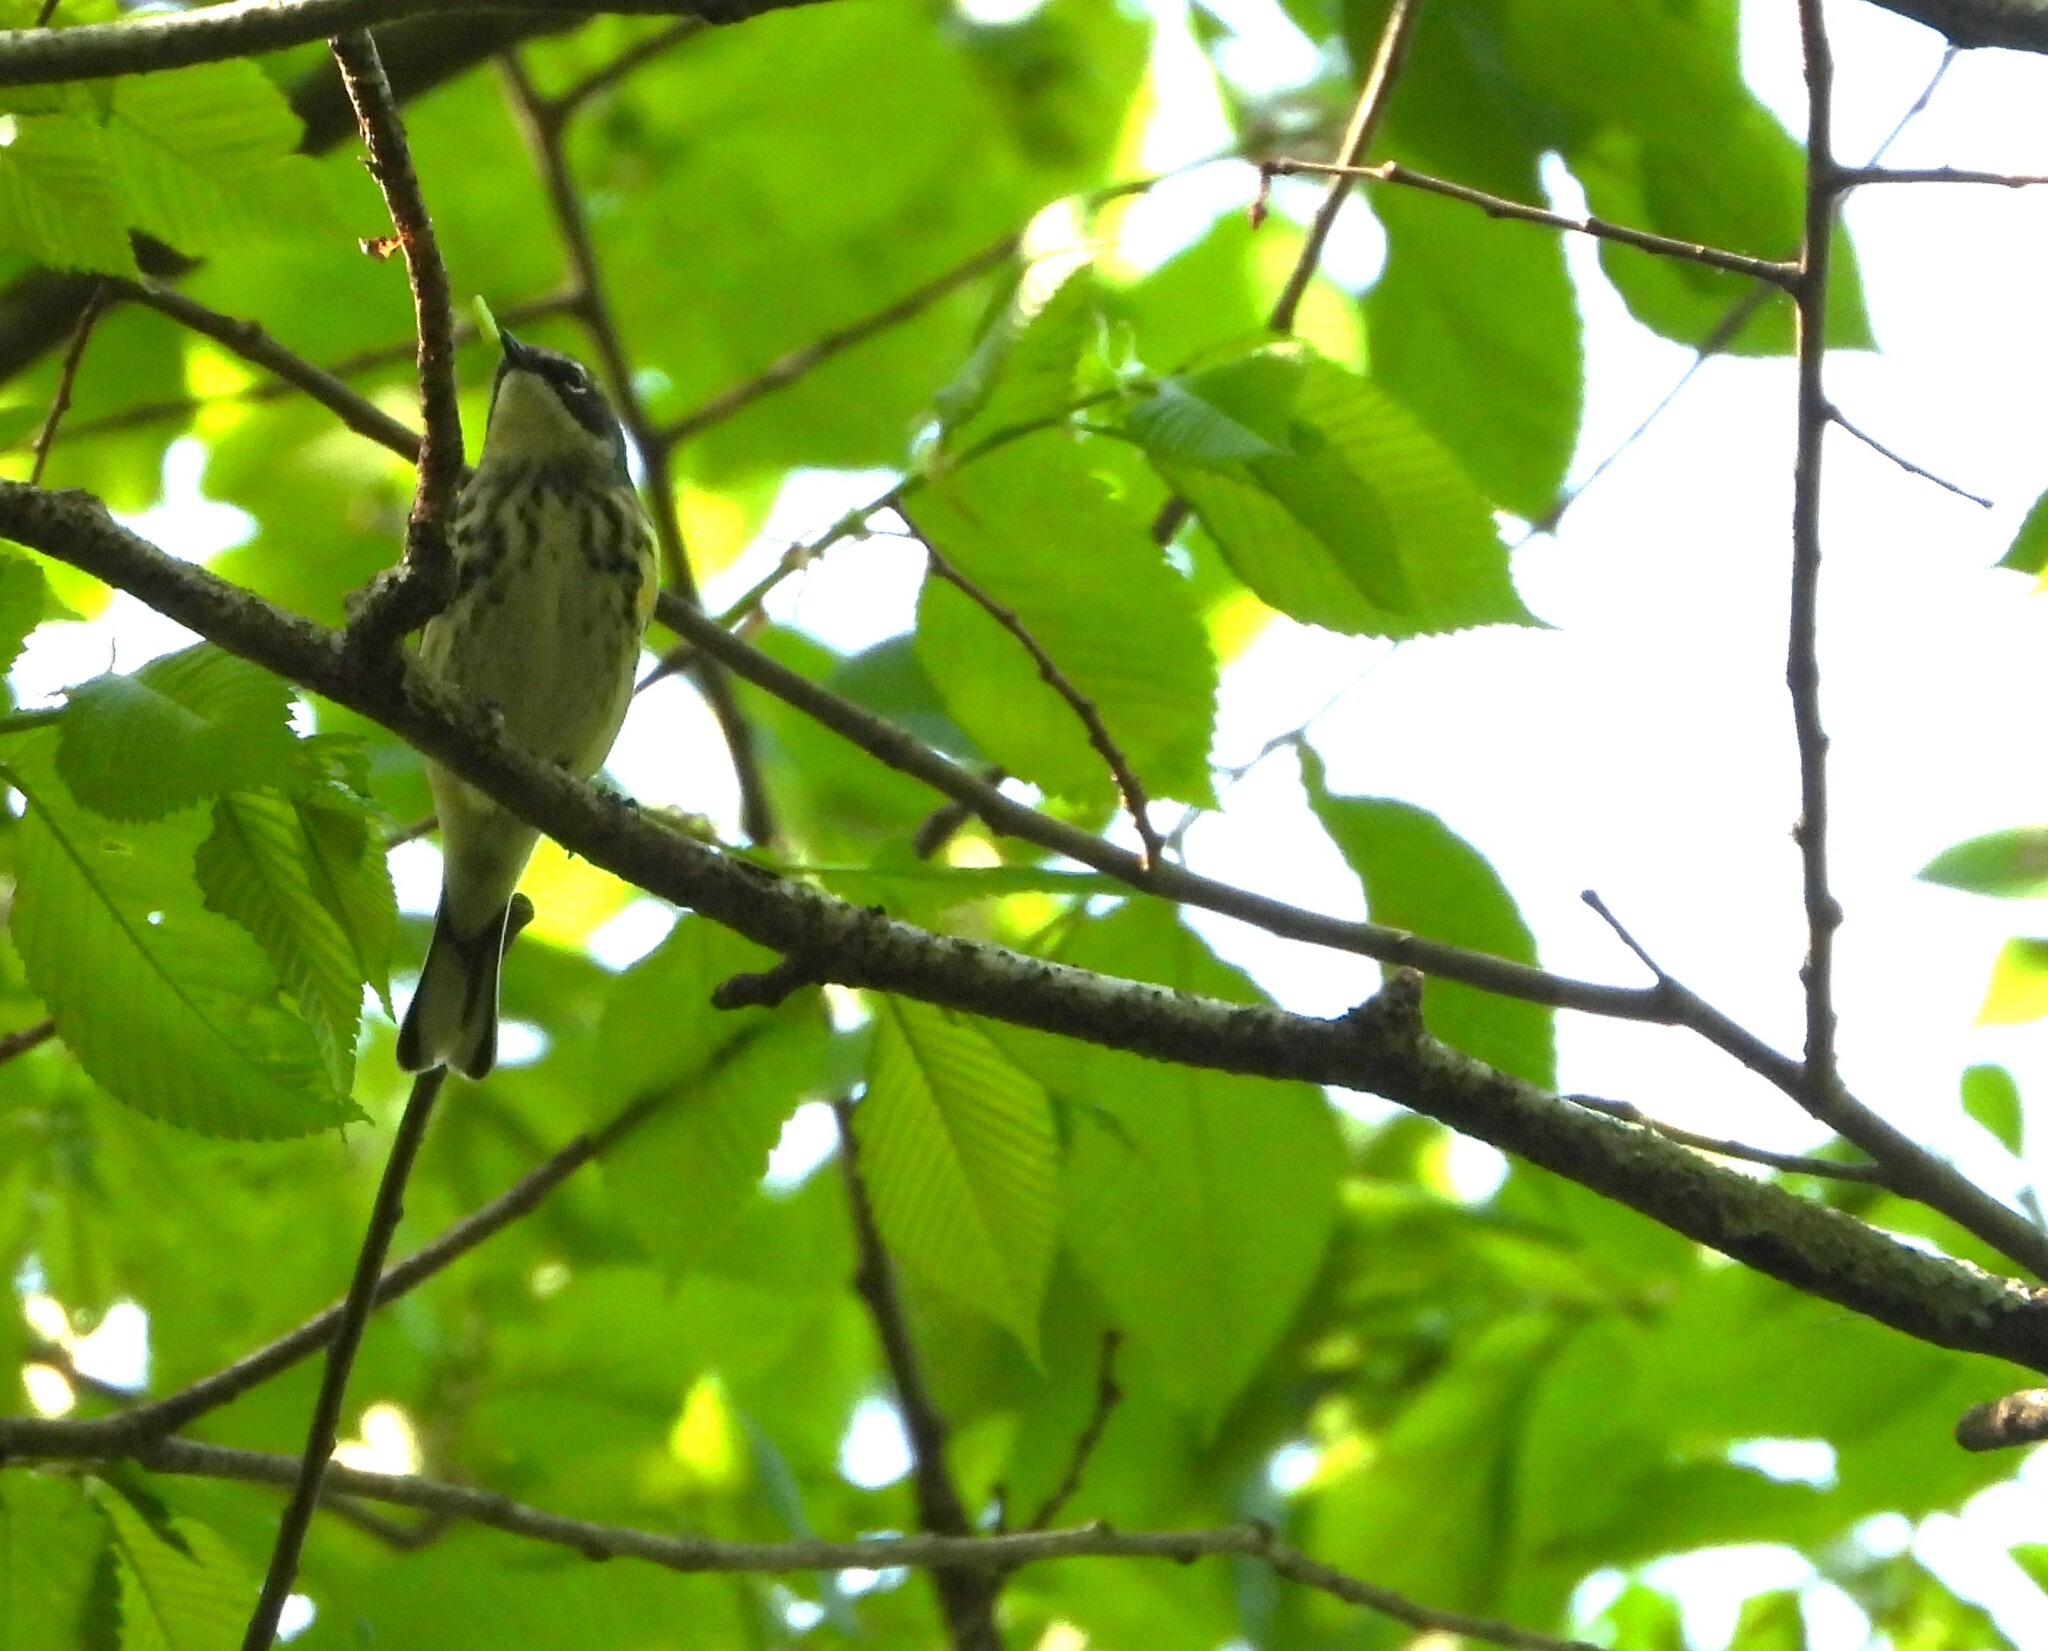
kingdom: Animalia
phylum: Chordata
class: Aves
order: Passeriformes
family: Parulidae
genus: Setophaga
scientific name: Setophaga coronata
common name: Myrtle warbler
